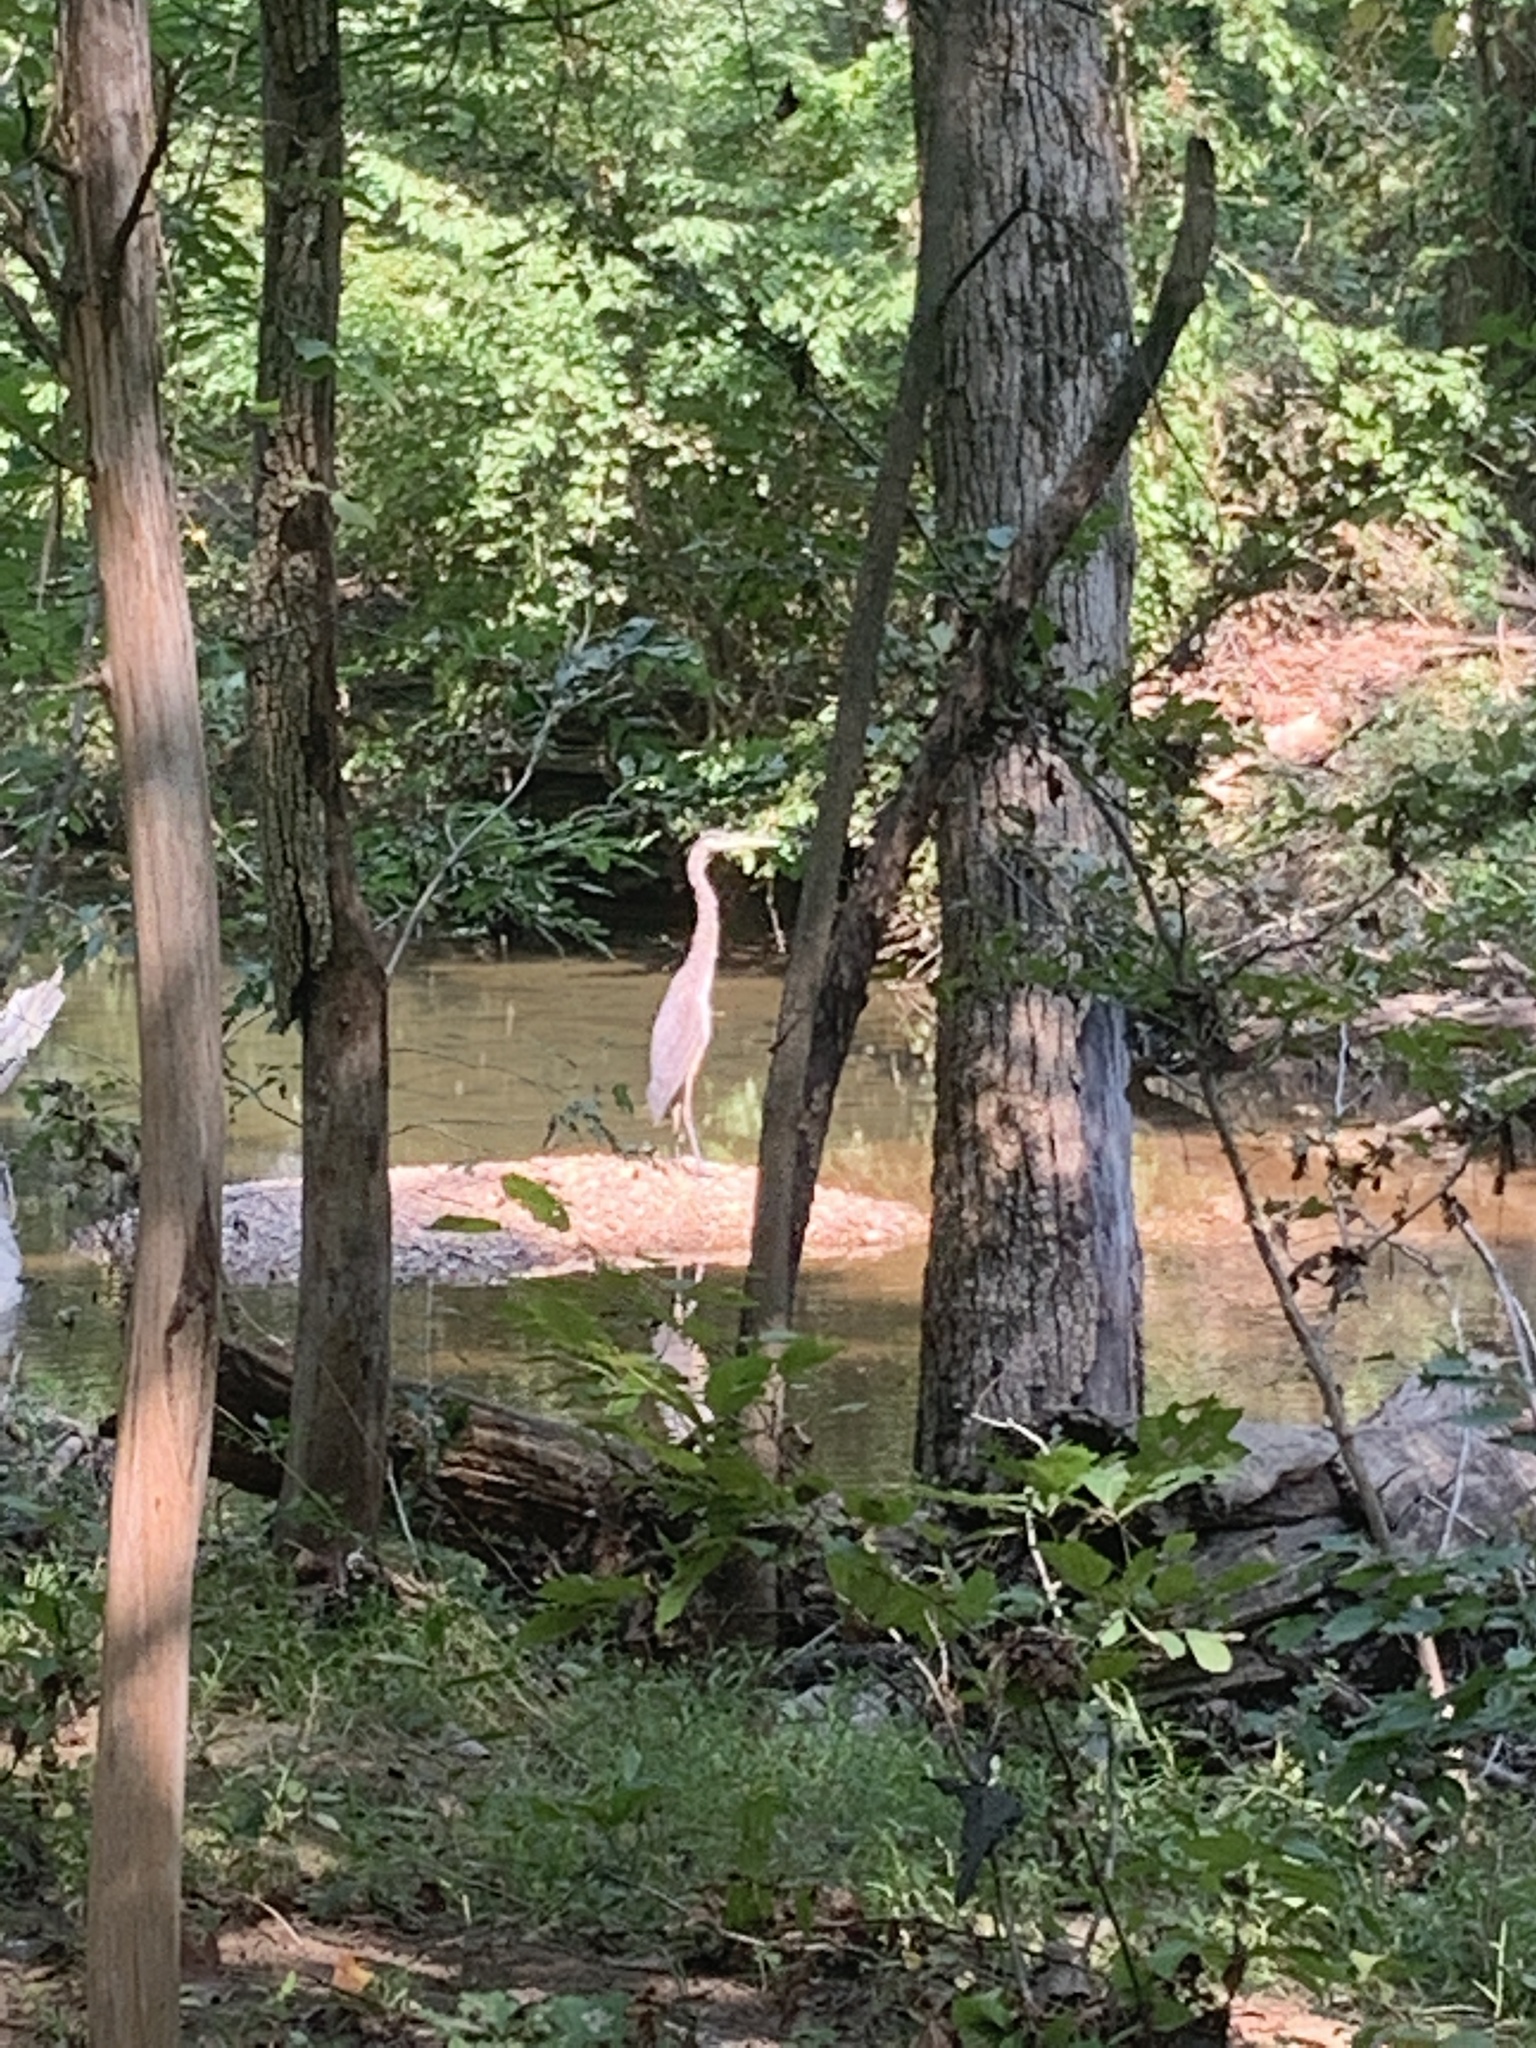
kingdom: Animalia
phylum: Chordata
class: Aves
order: Pelecaniformes
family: Ardeidae
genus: Ardea
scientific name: Ardea herodias
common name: Great blue heron
